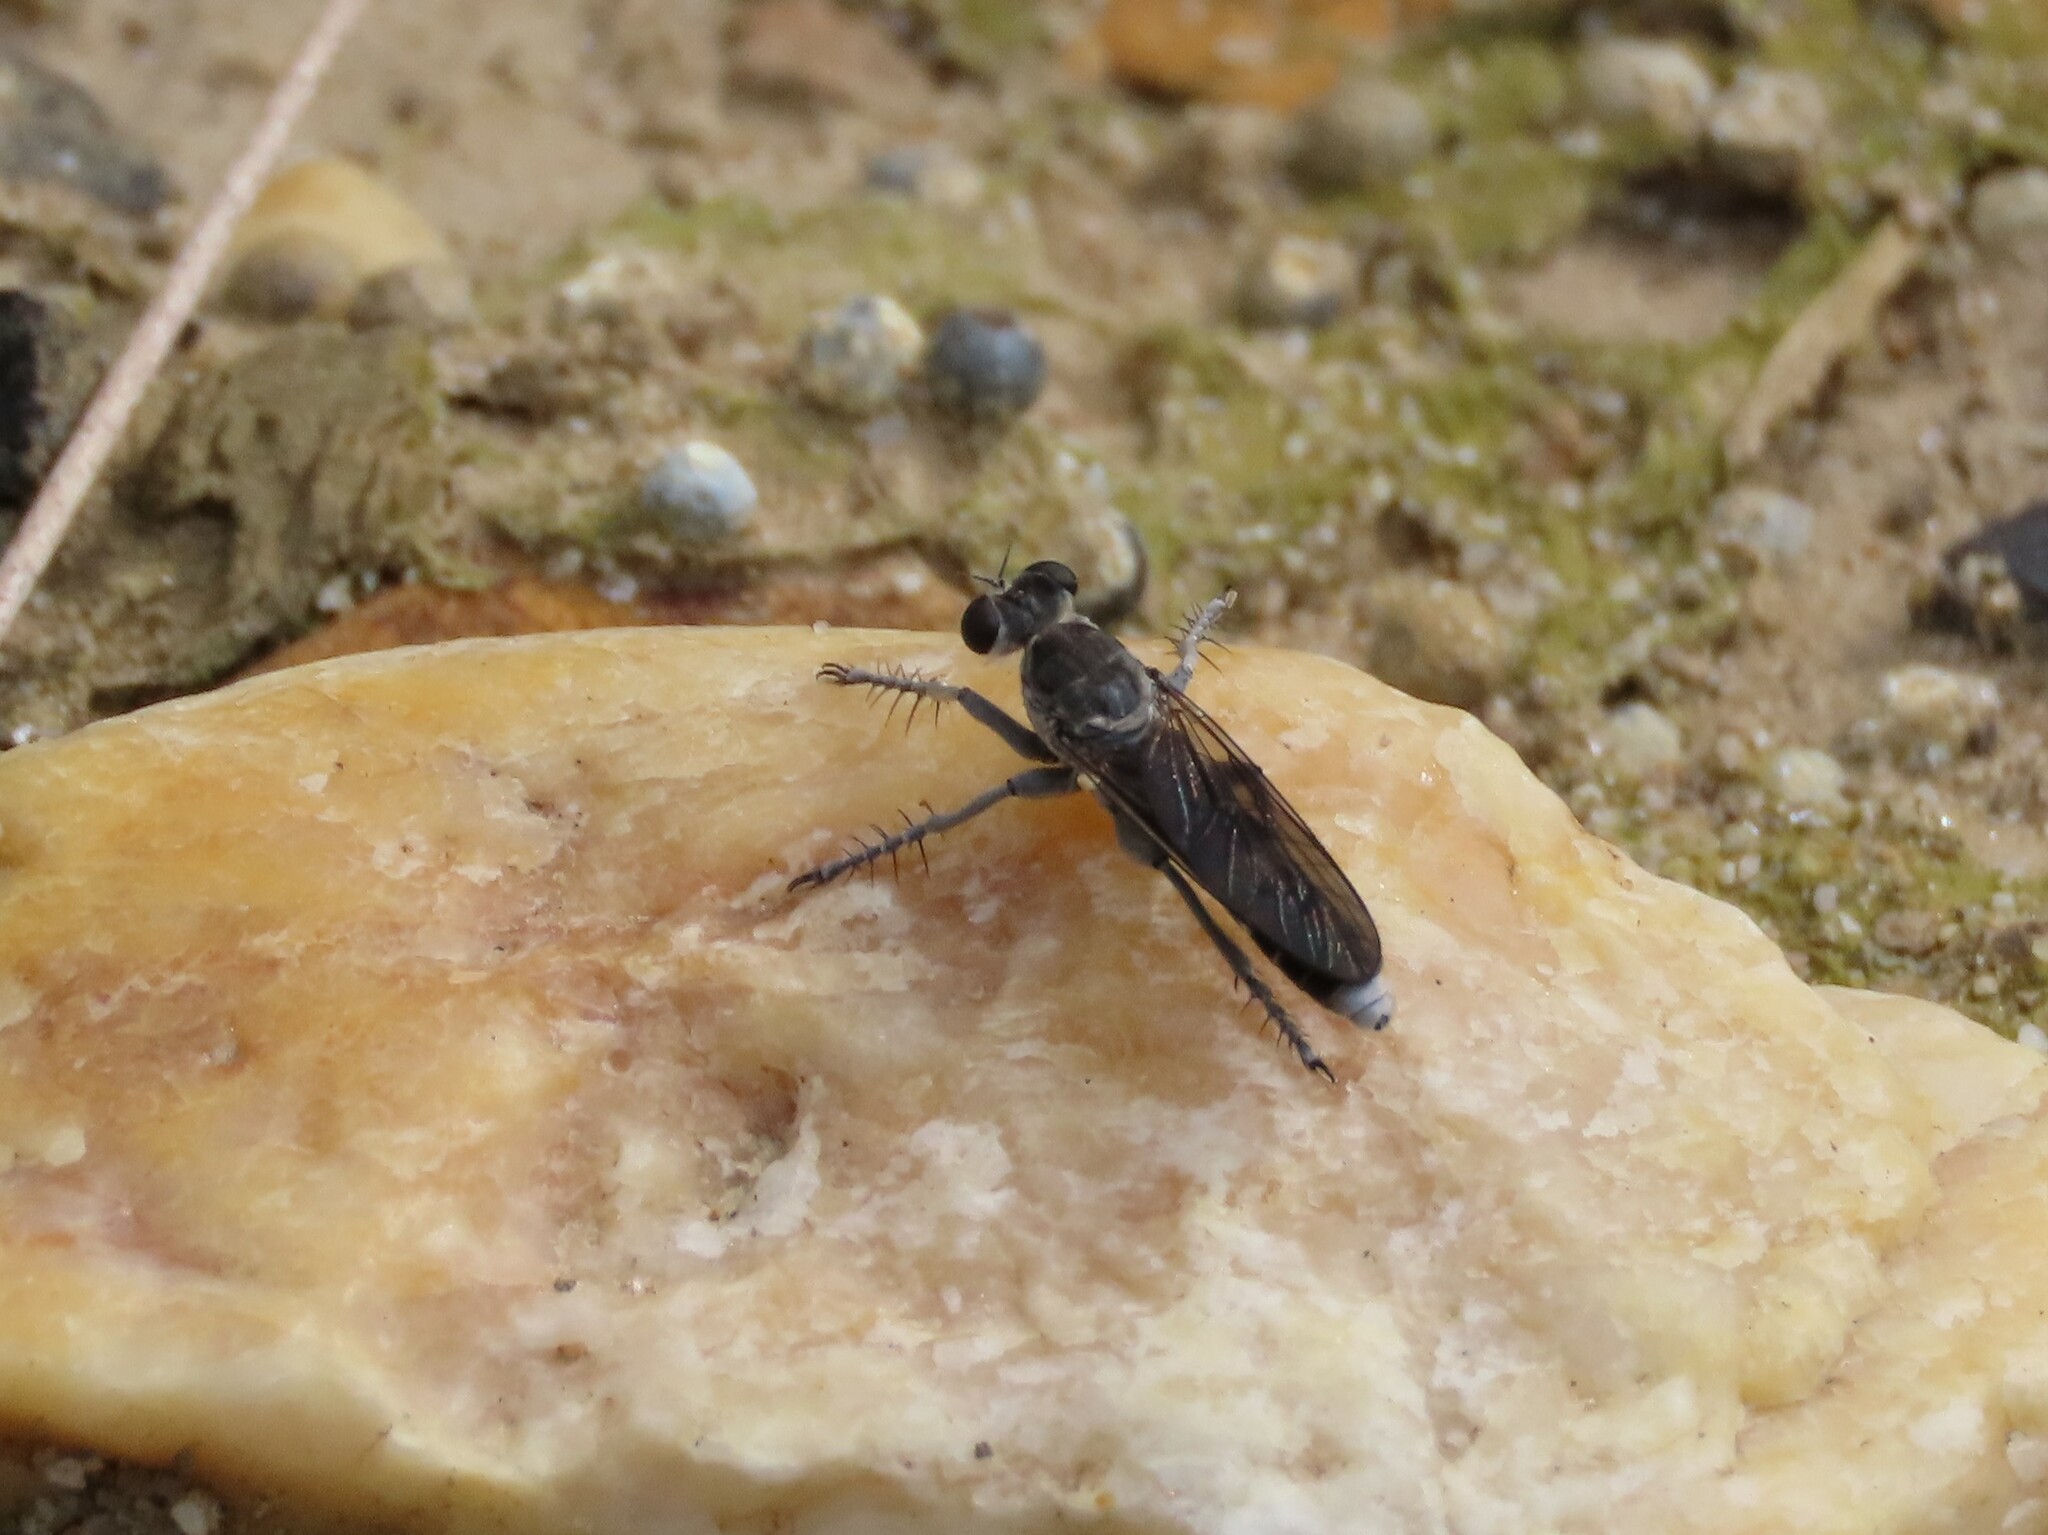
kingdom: Animalia
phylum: Arthropoda
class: Insecta
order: Diptera
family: Asilidae
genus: Stichopogon
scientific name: Stichopogon trifasciatus
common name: Three-banded robber fly
